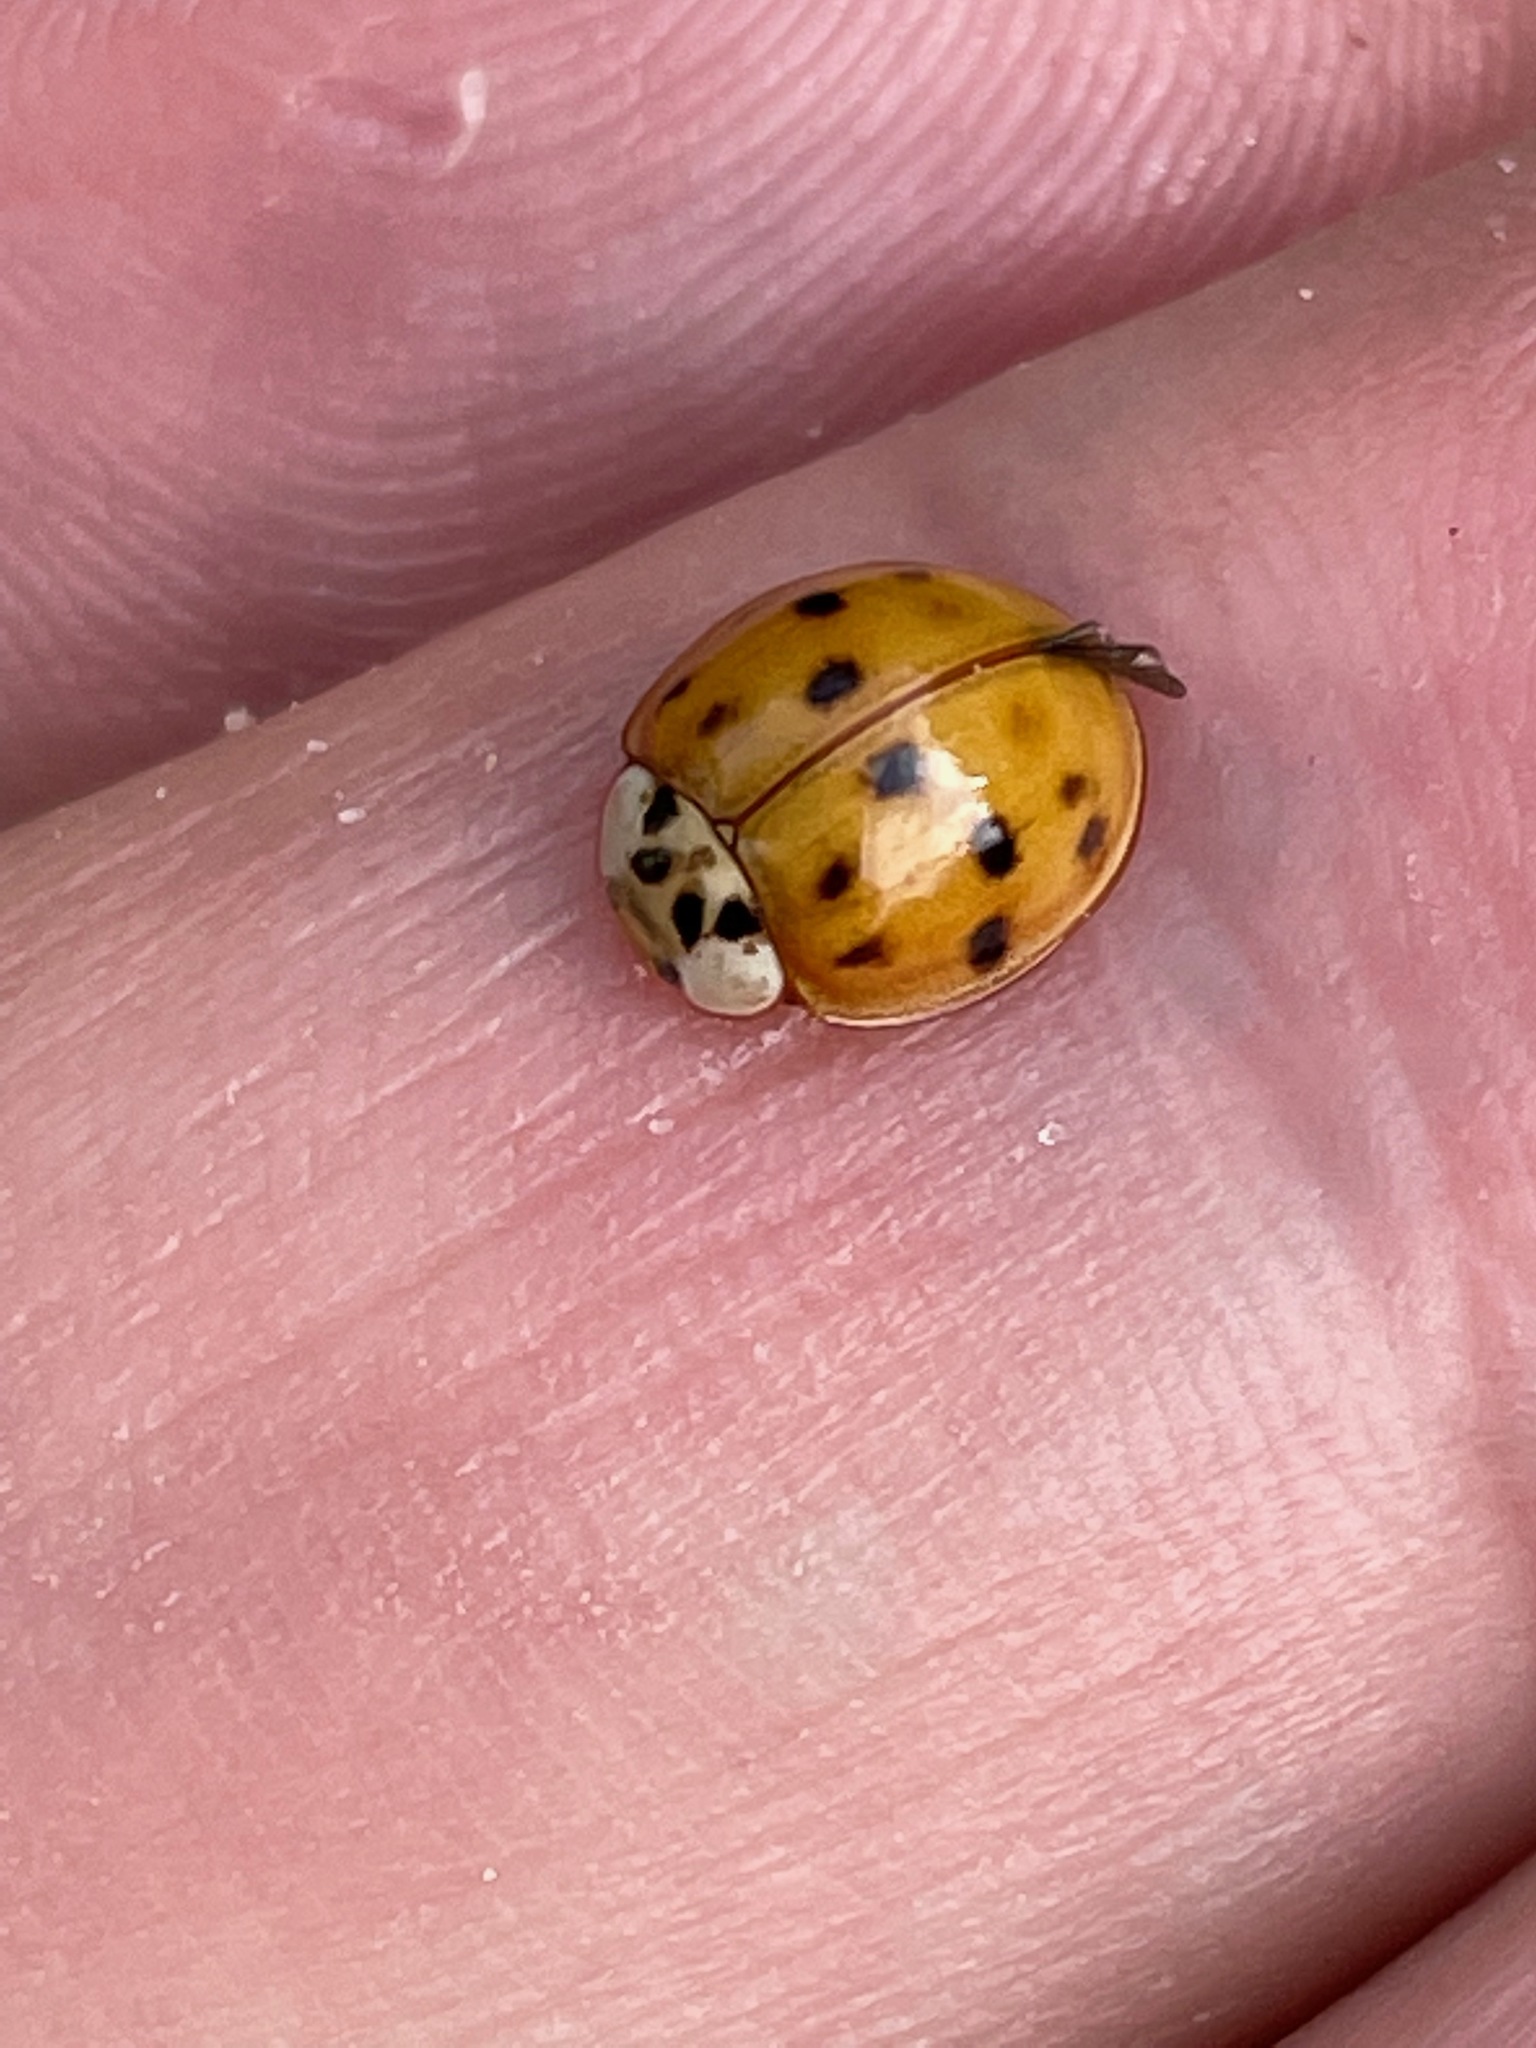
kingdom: Animalia
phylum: Arthropoda
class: Insecta
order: Coleoptera
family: Coccinellidae
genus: Harmonia
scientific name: Harmonia axyridis
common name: Harlequin ladybird
